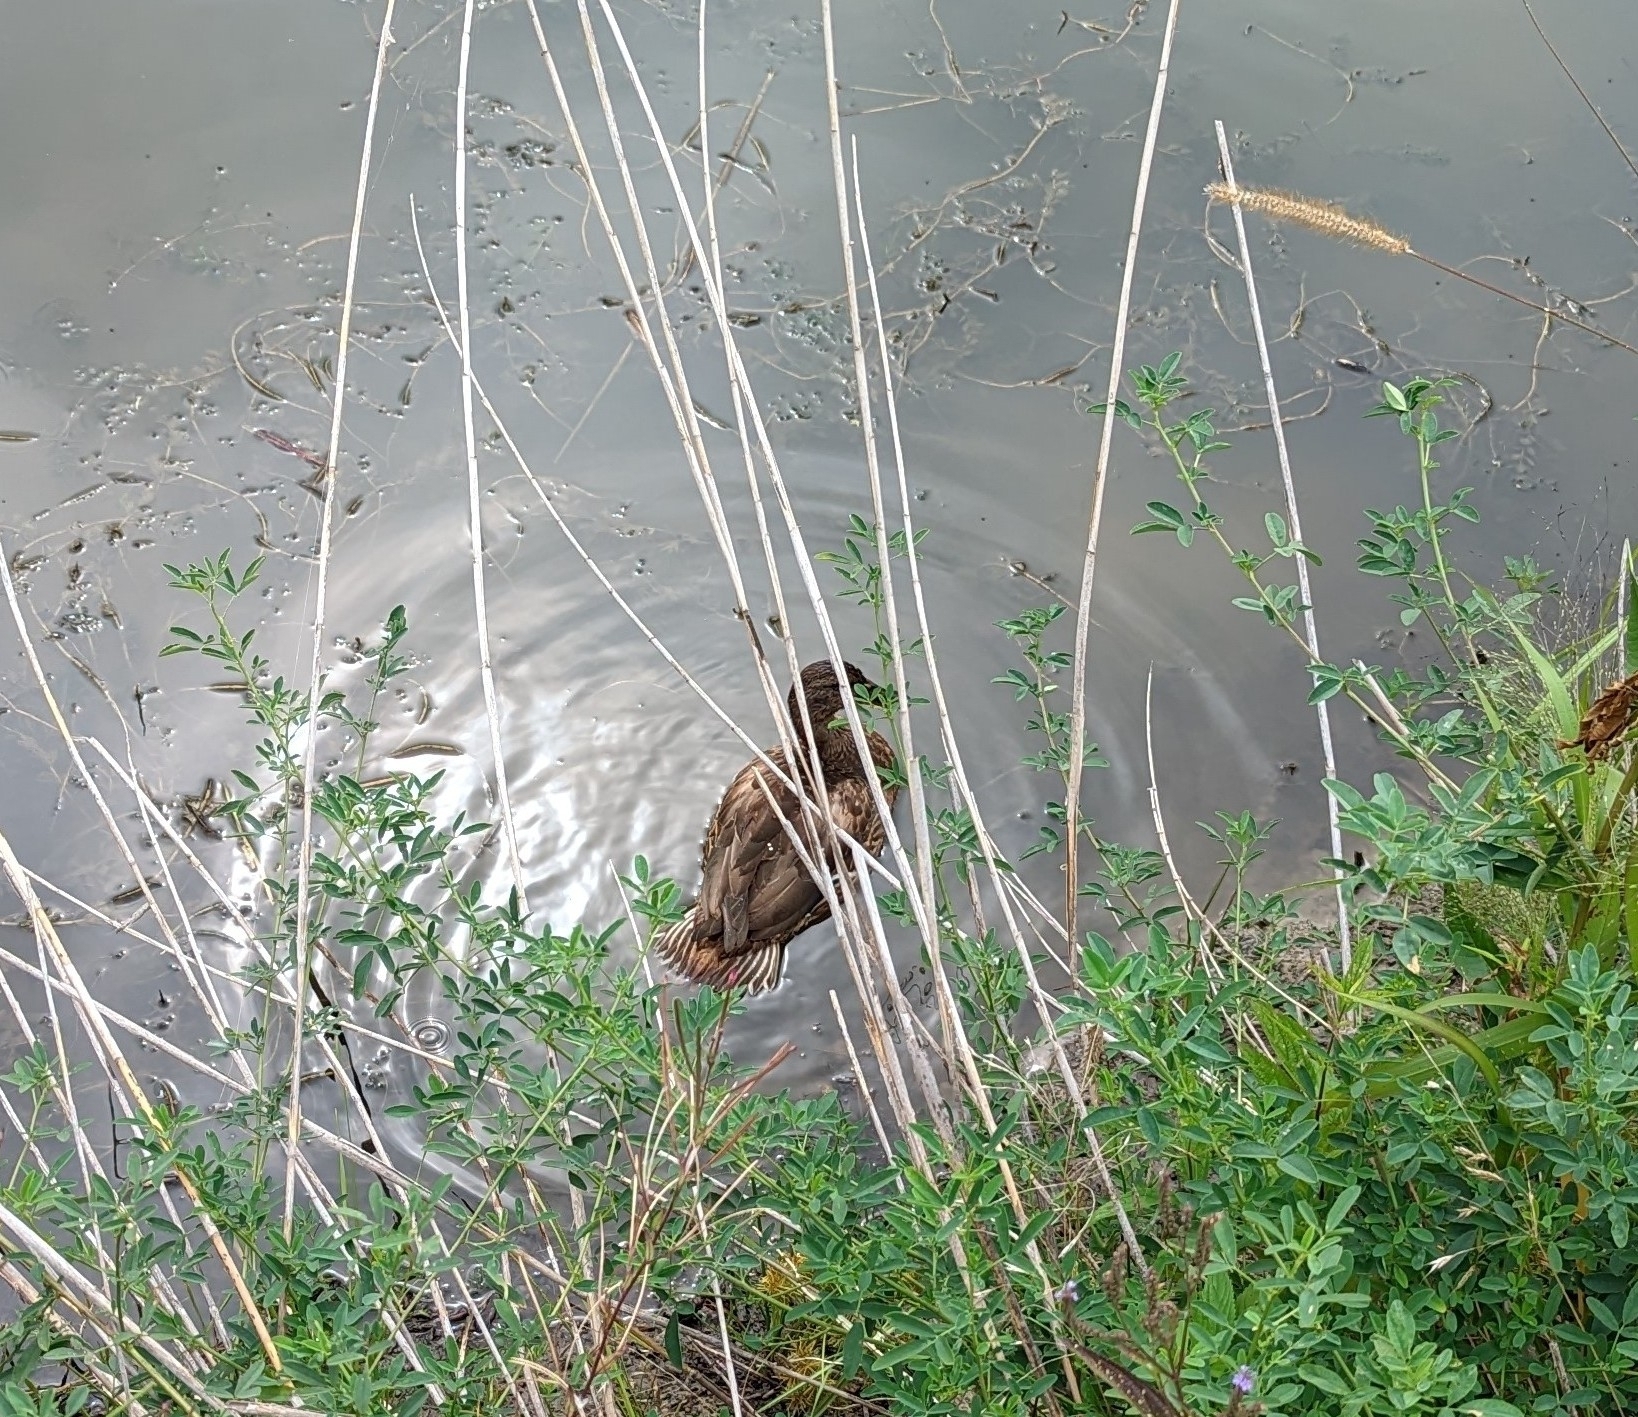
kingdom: Animalia
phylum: Chordata
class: Aves
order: Anseriformes
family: Anatidae
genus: Anas
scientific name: Anas platyrhynchos
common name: Mallard
